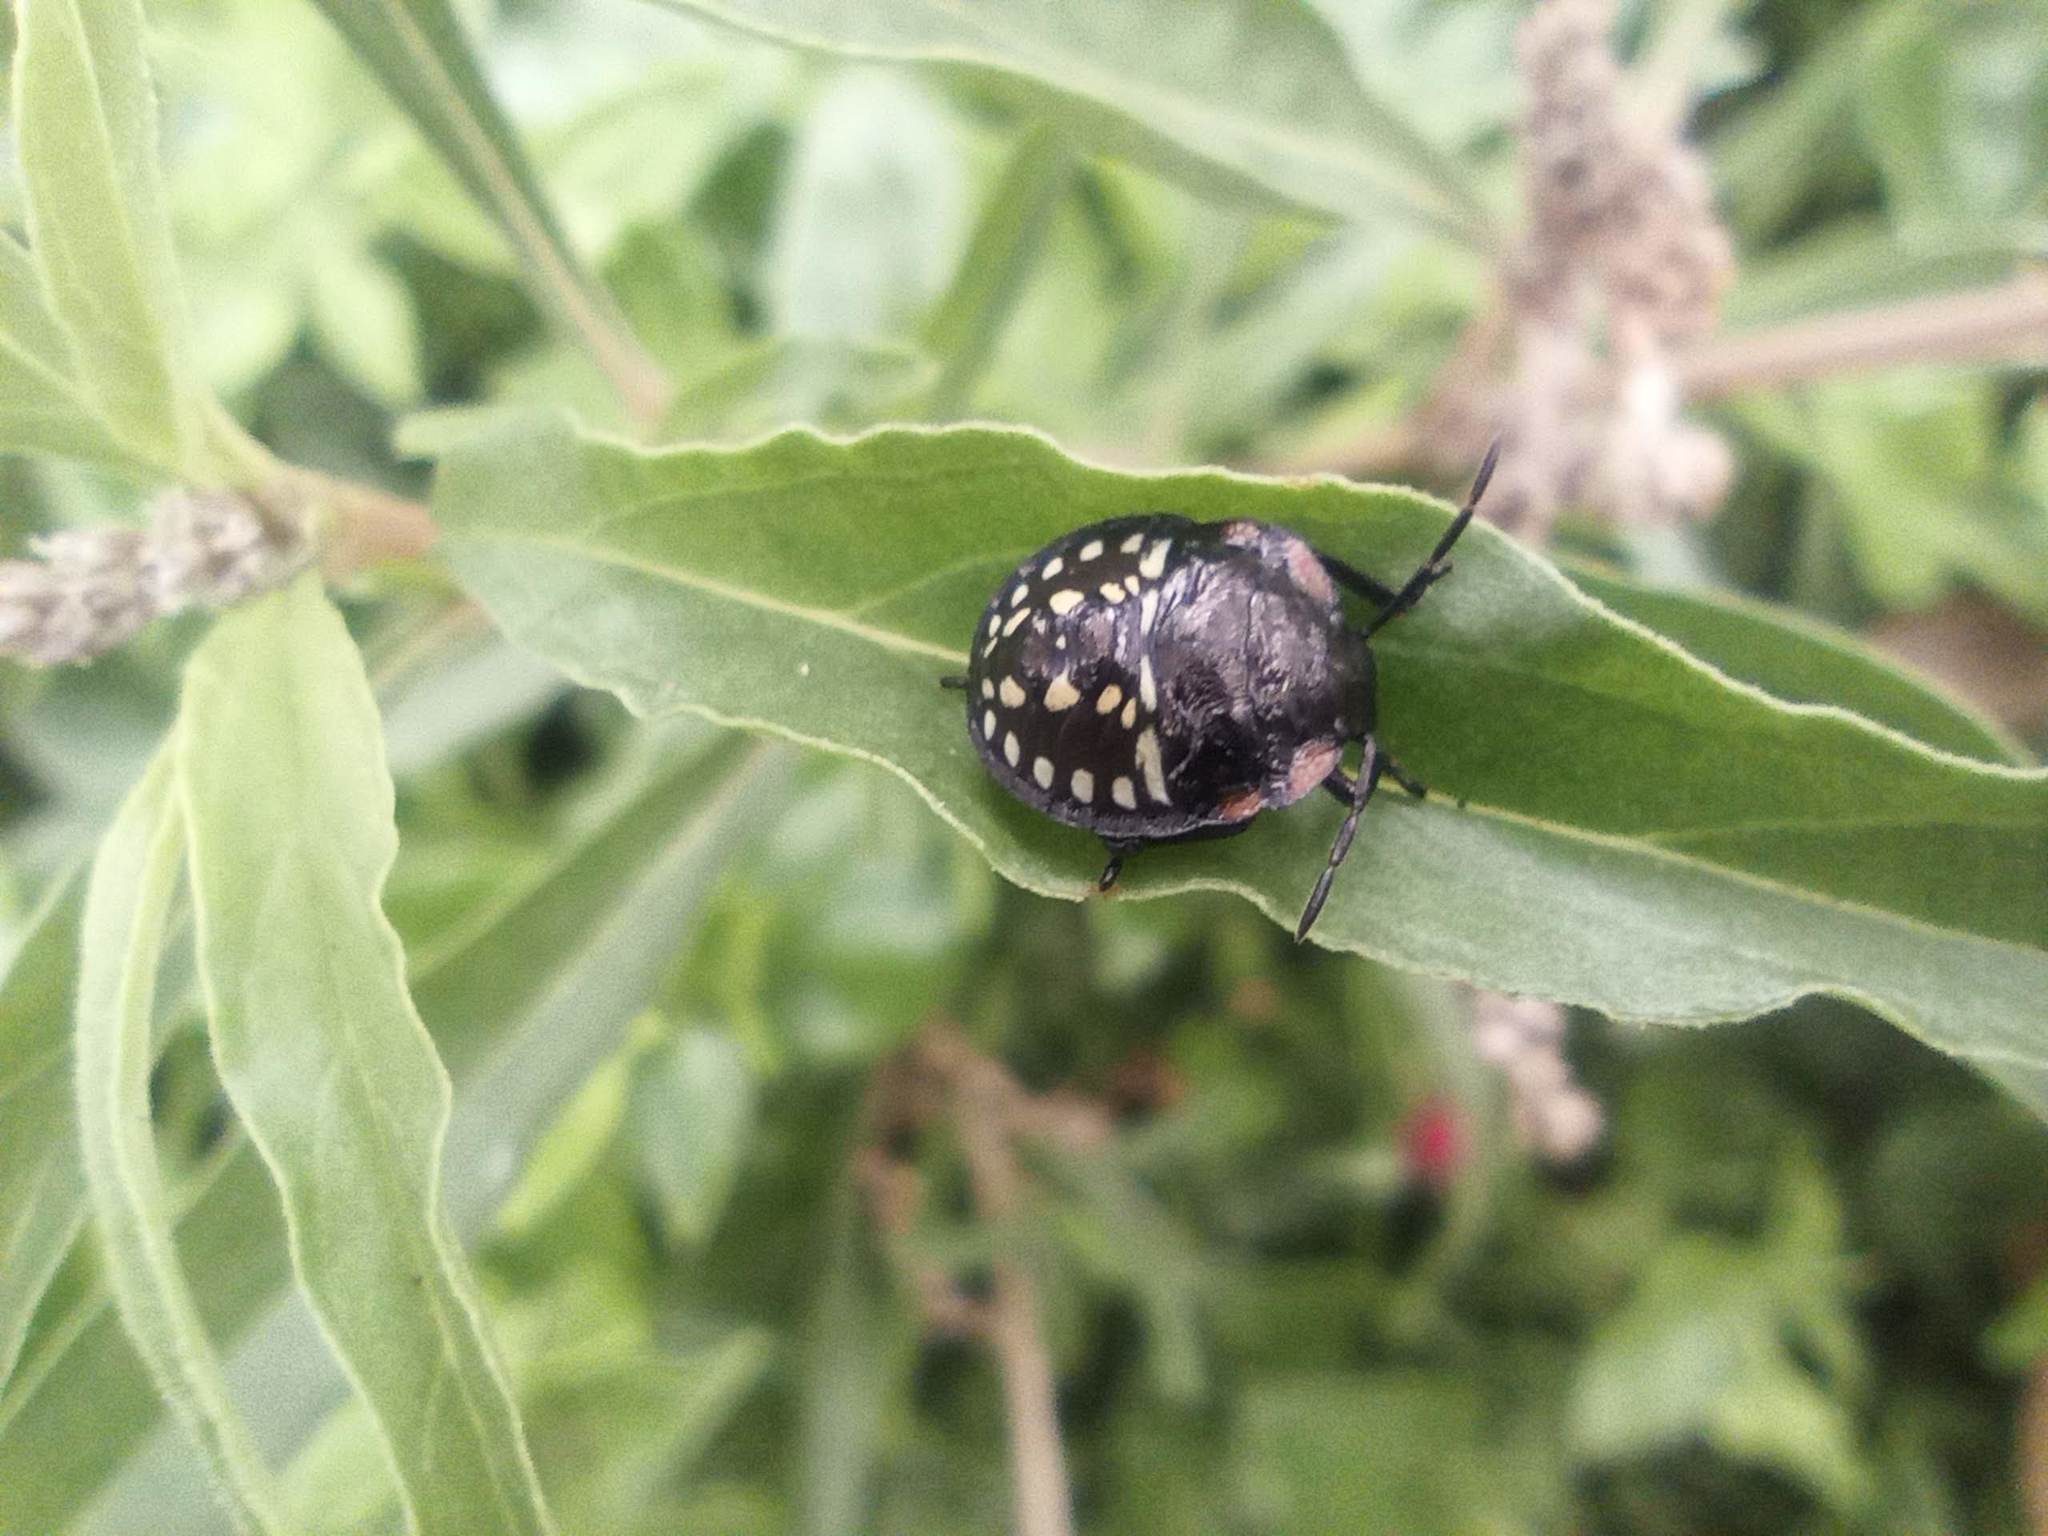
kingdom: Animalia
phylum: Arthropoda
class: Insecta
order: Hemiptera
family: Pentatomidae
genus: Nezara
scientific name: Nezara viridula
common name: Southern green stink bug
